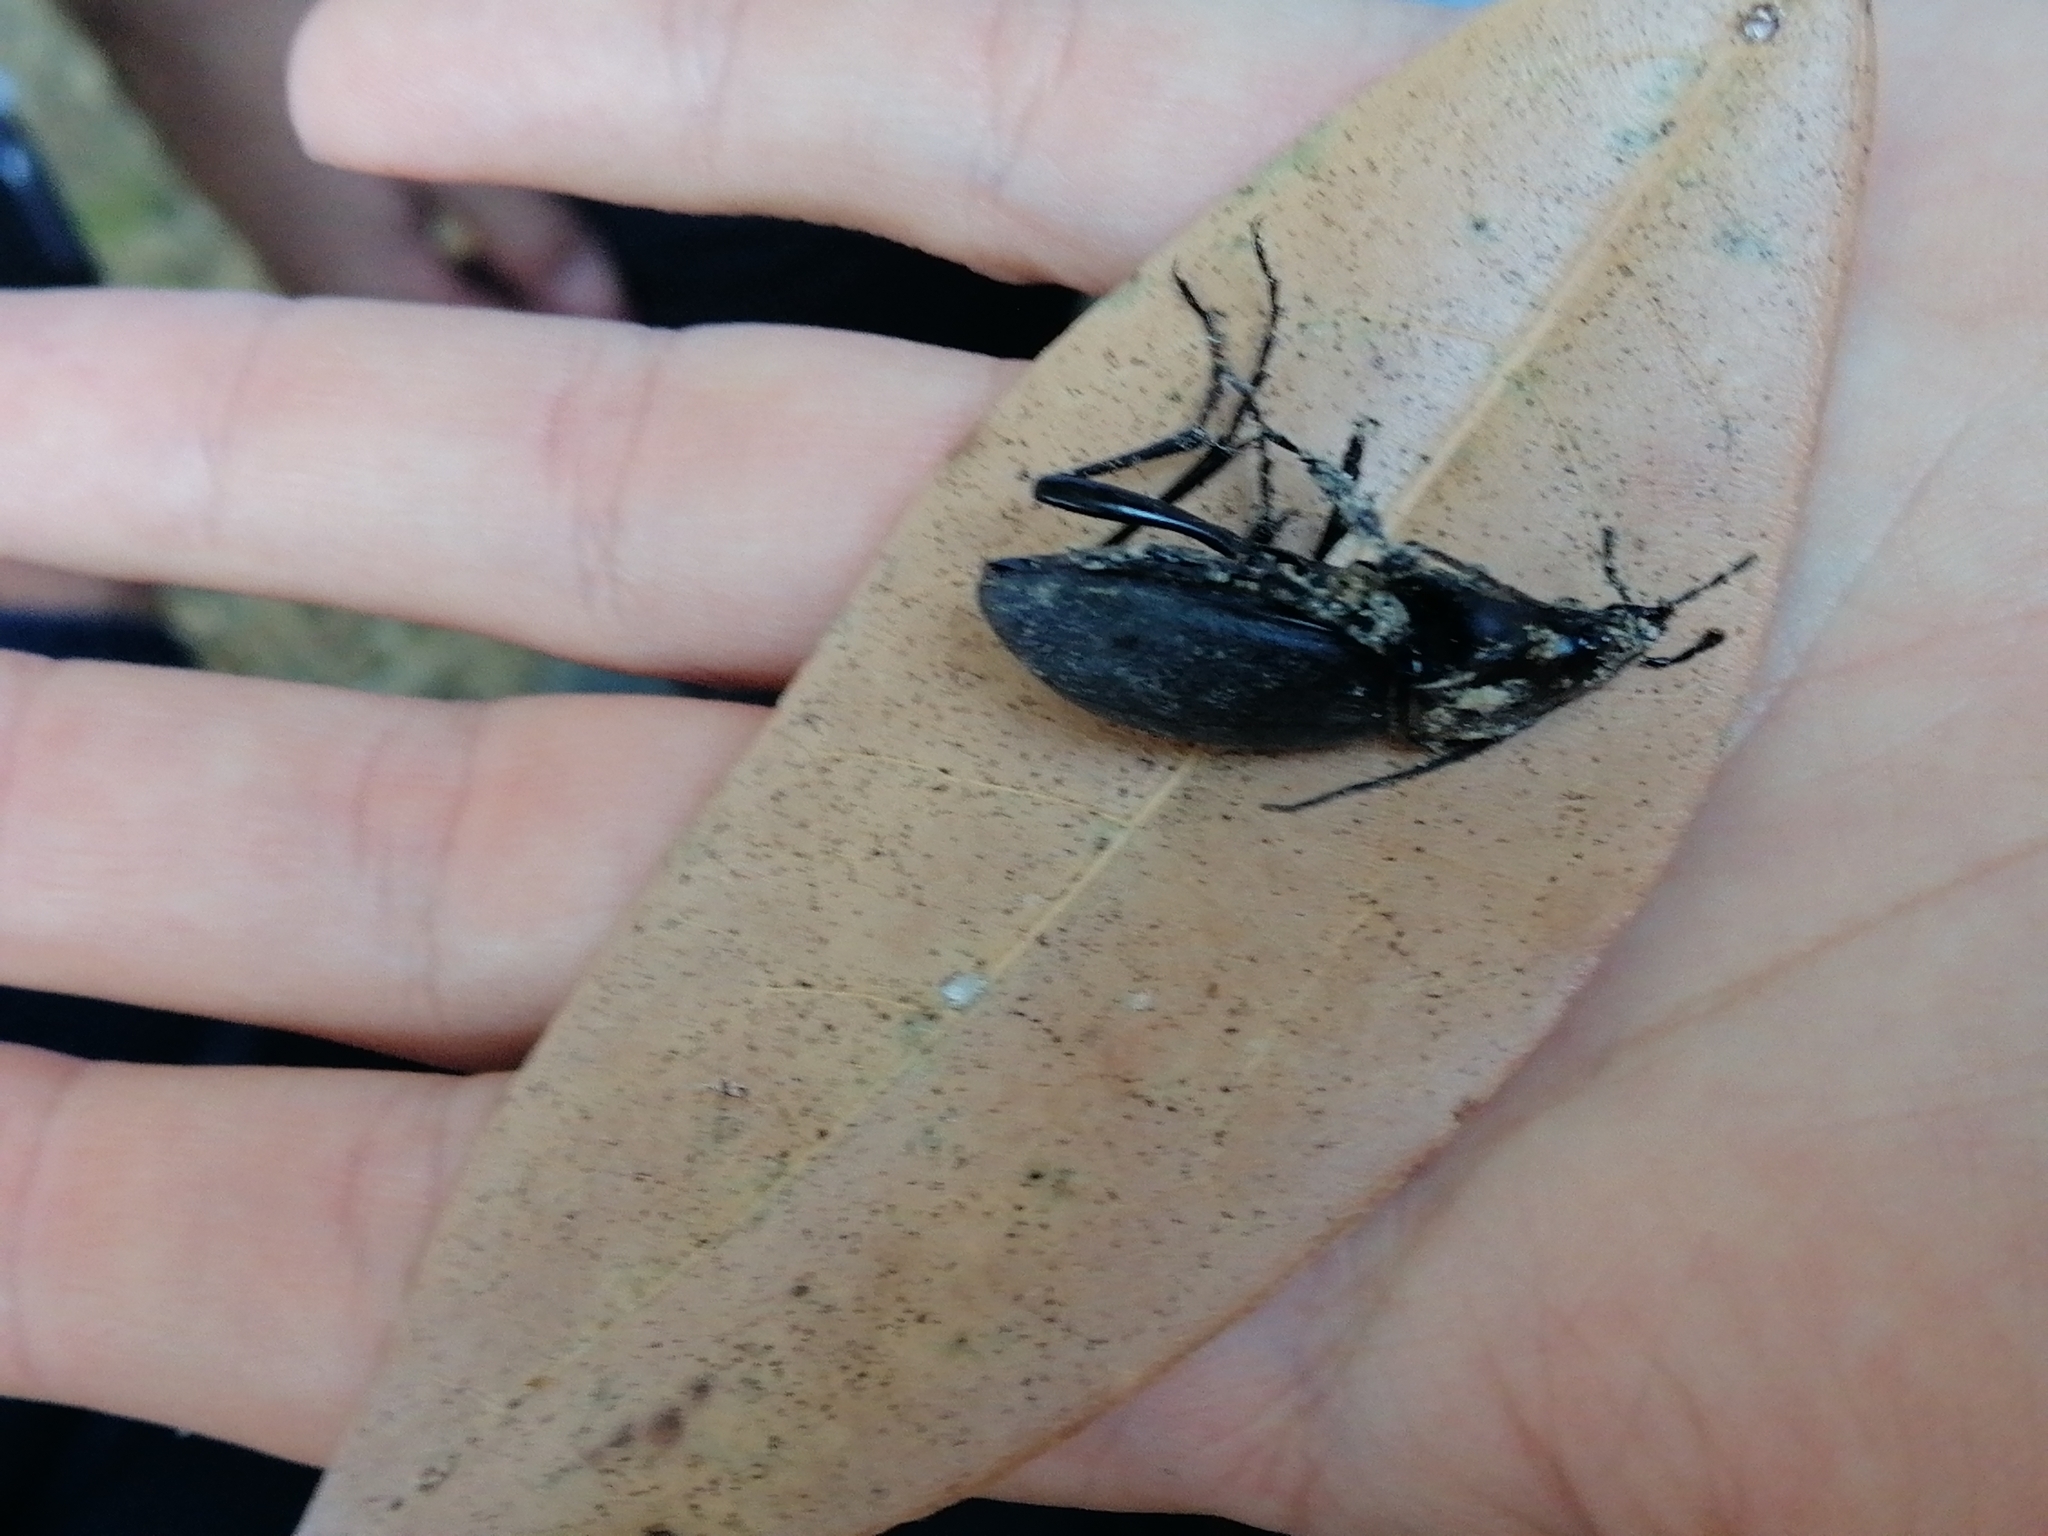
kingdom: Animalia
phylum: Arthropoda
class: Insecta
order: Coleoptera
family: Carabidae
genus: Carabus
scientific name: Carabus coriaceus
